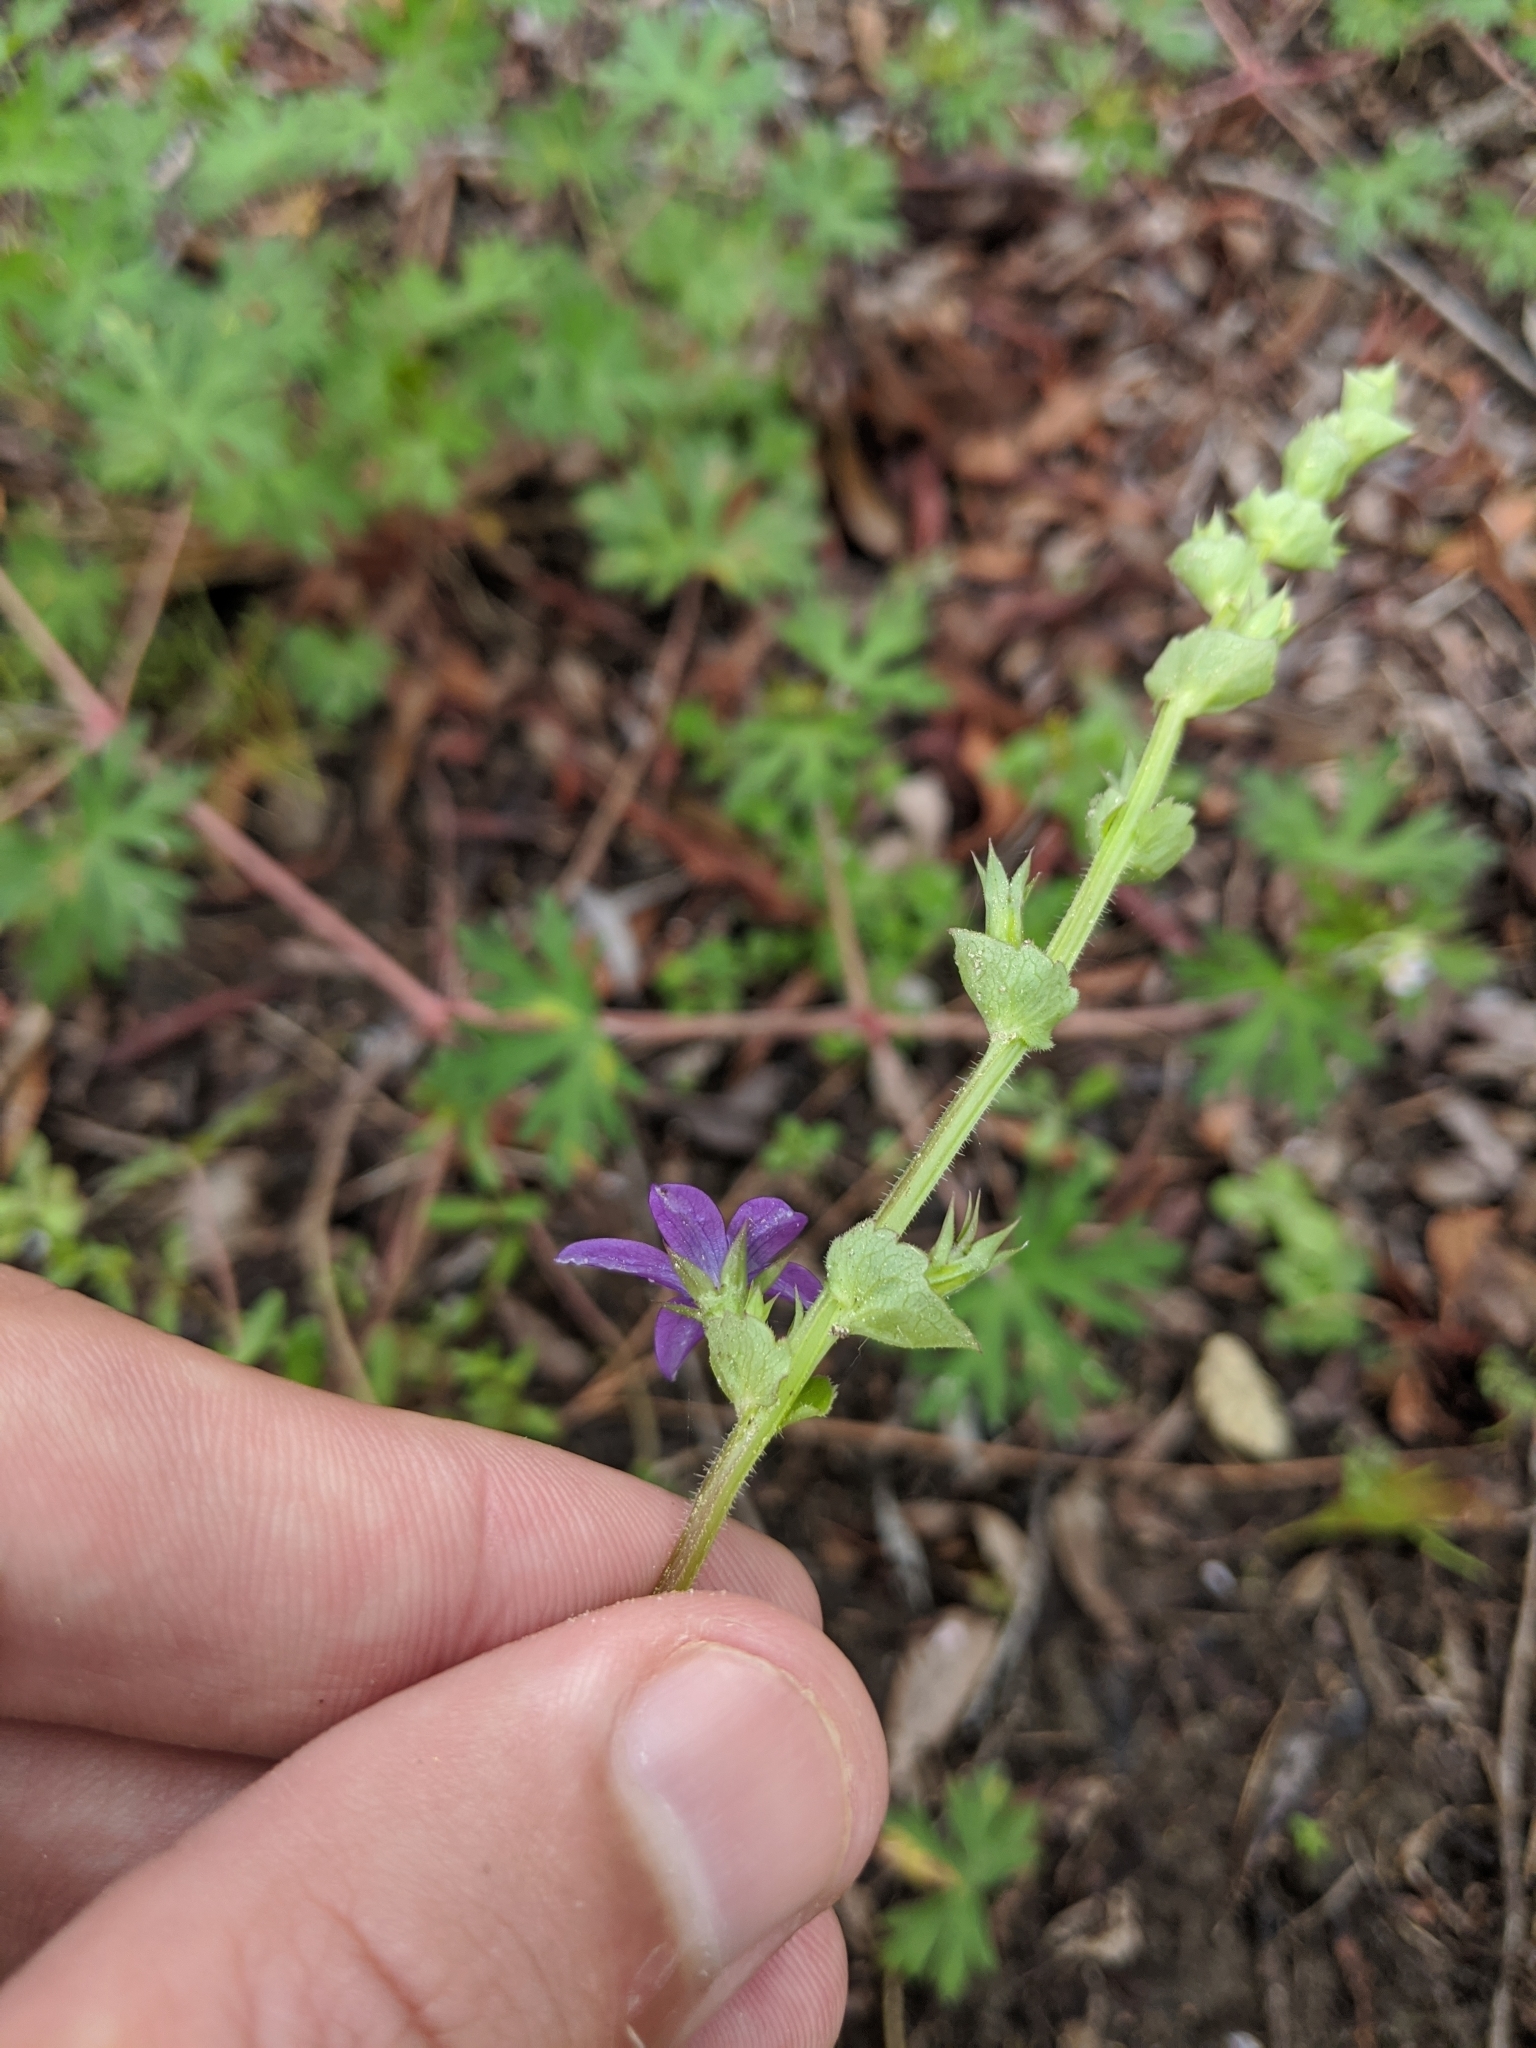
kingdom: Plantae
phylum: Tracheophyta
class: Magnoliopsida
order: Asterales
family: Campanulaceae
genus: Triodanis
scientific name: Triodanis perfoliata
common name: Clasping venus' looking-glass
